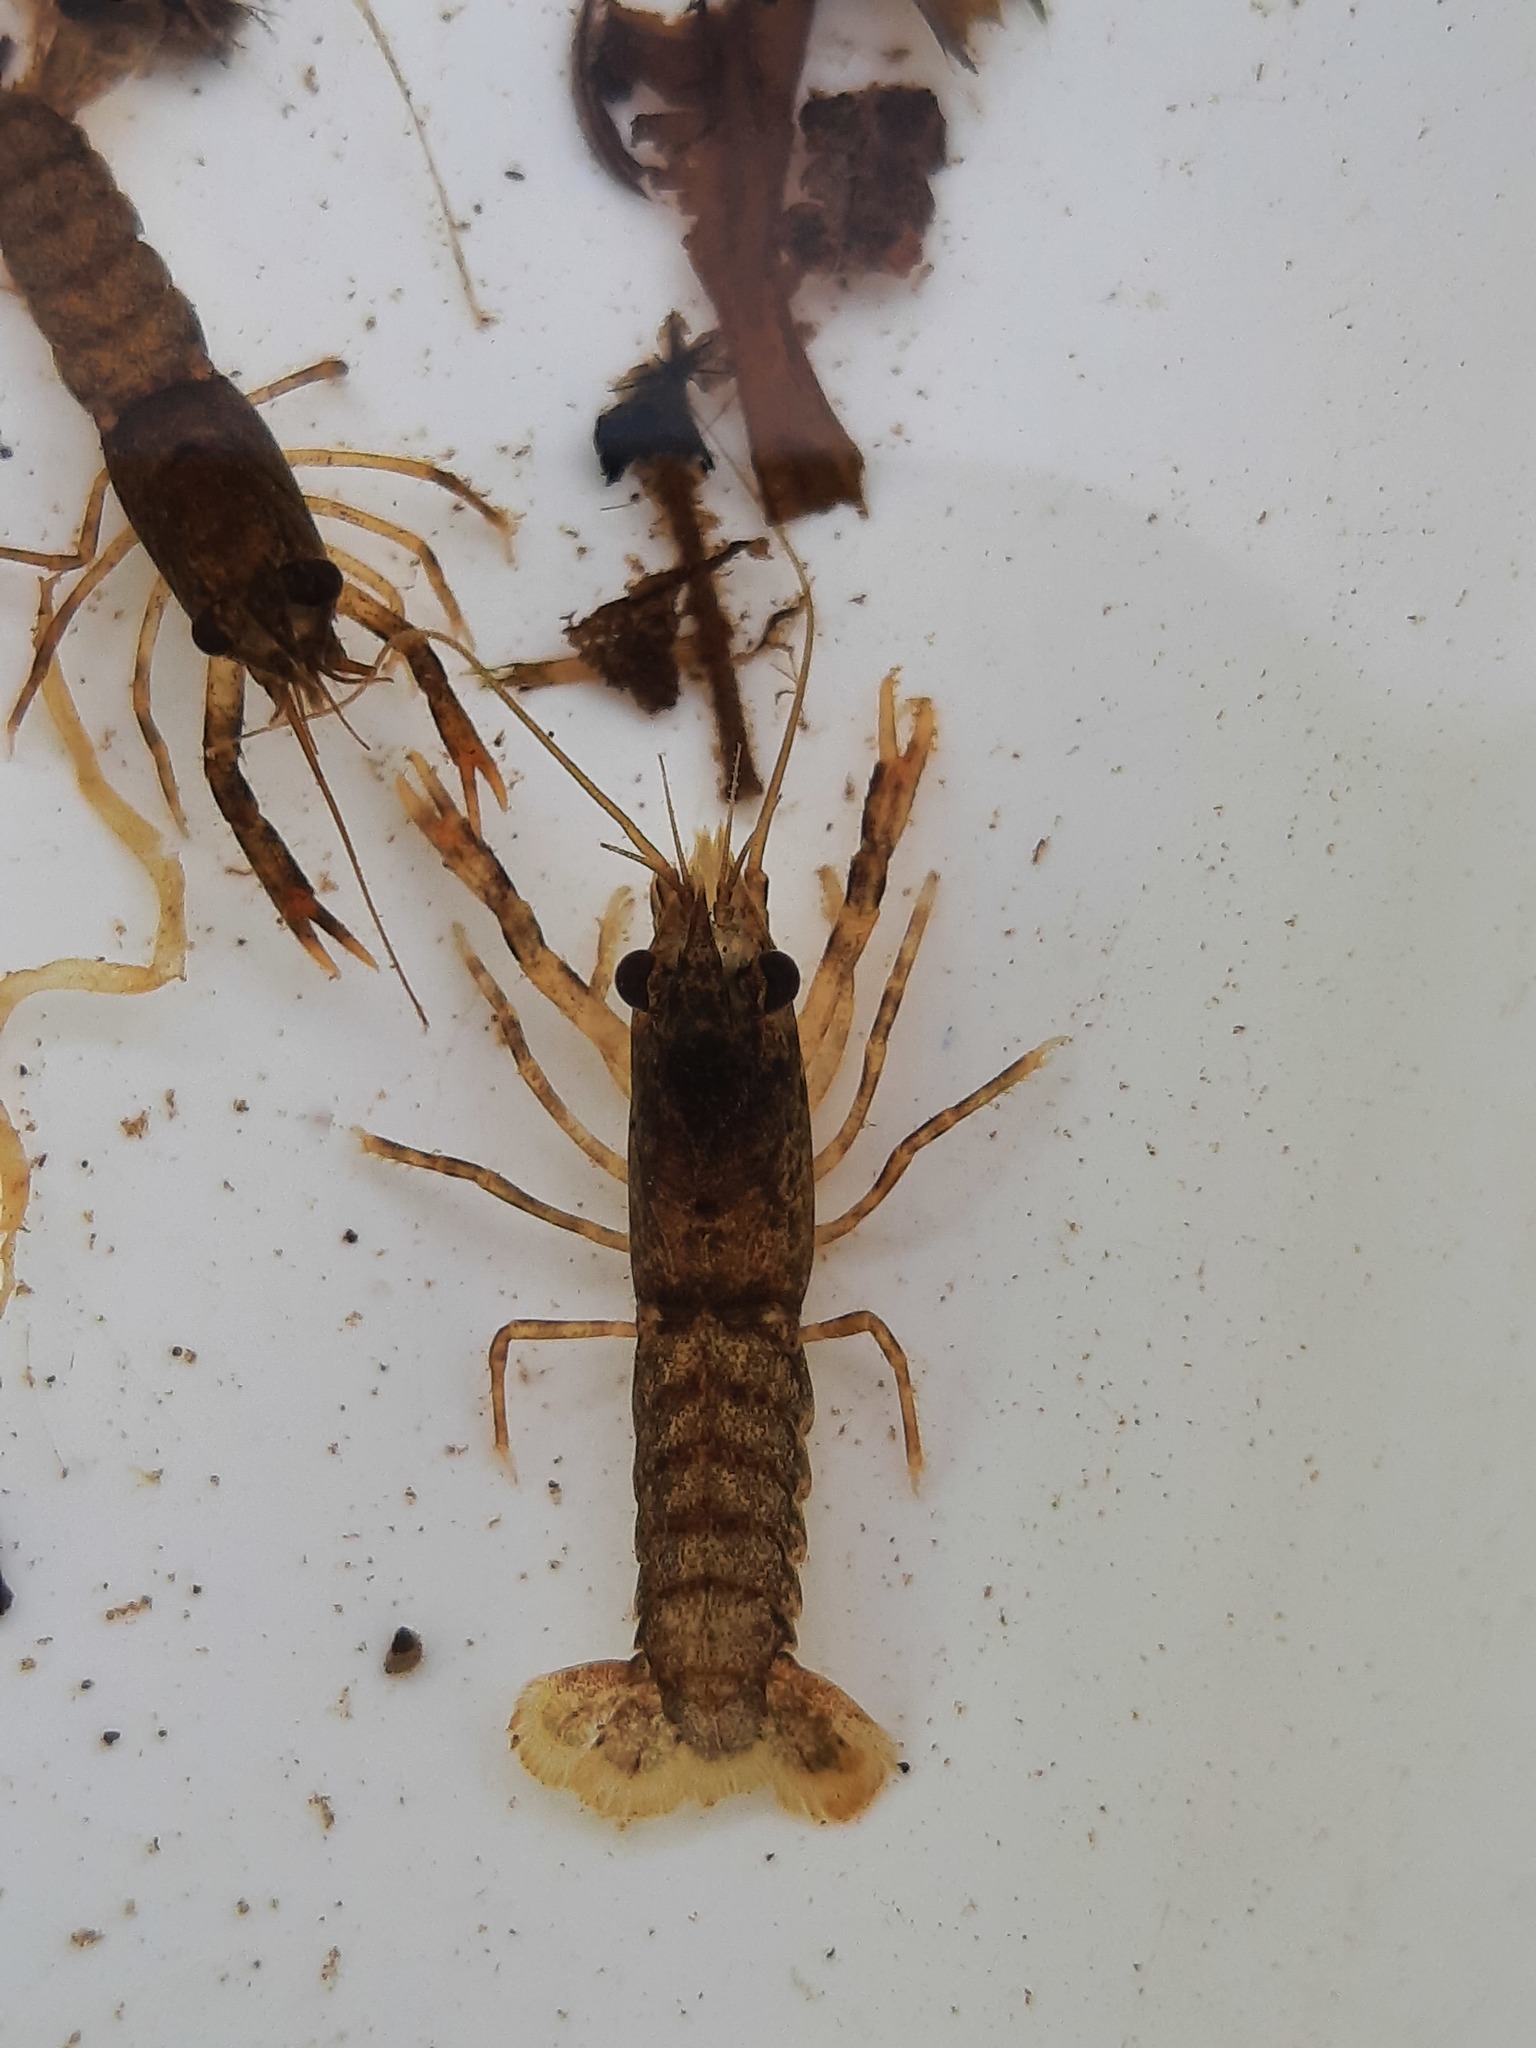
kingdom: Animalia
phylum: Arthropoda
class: Malacostraca
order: Decapoda
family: Parastacidae
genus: Paranephrops
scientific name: Paranephrops planifrons
